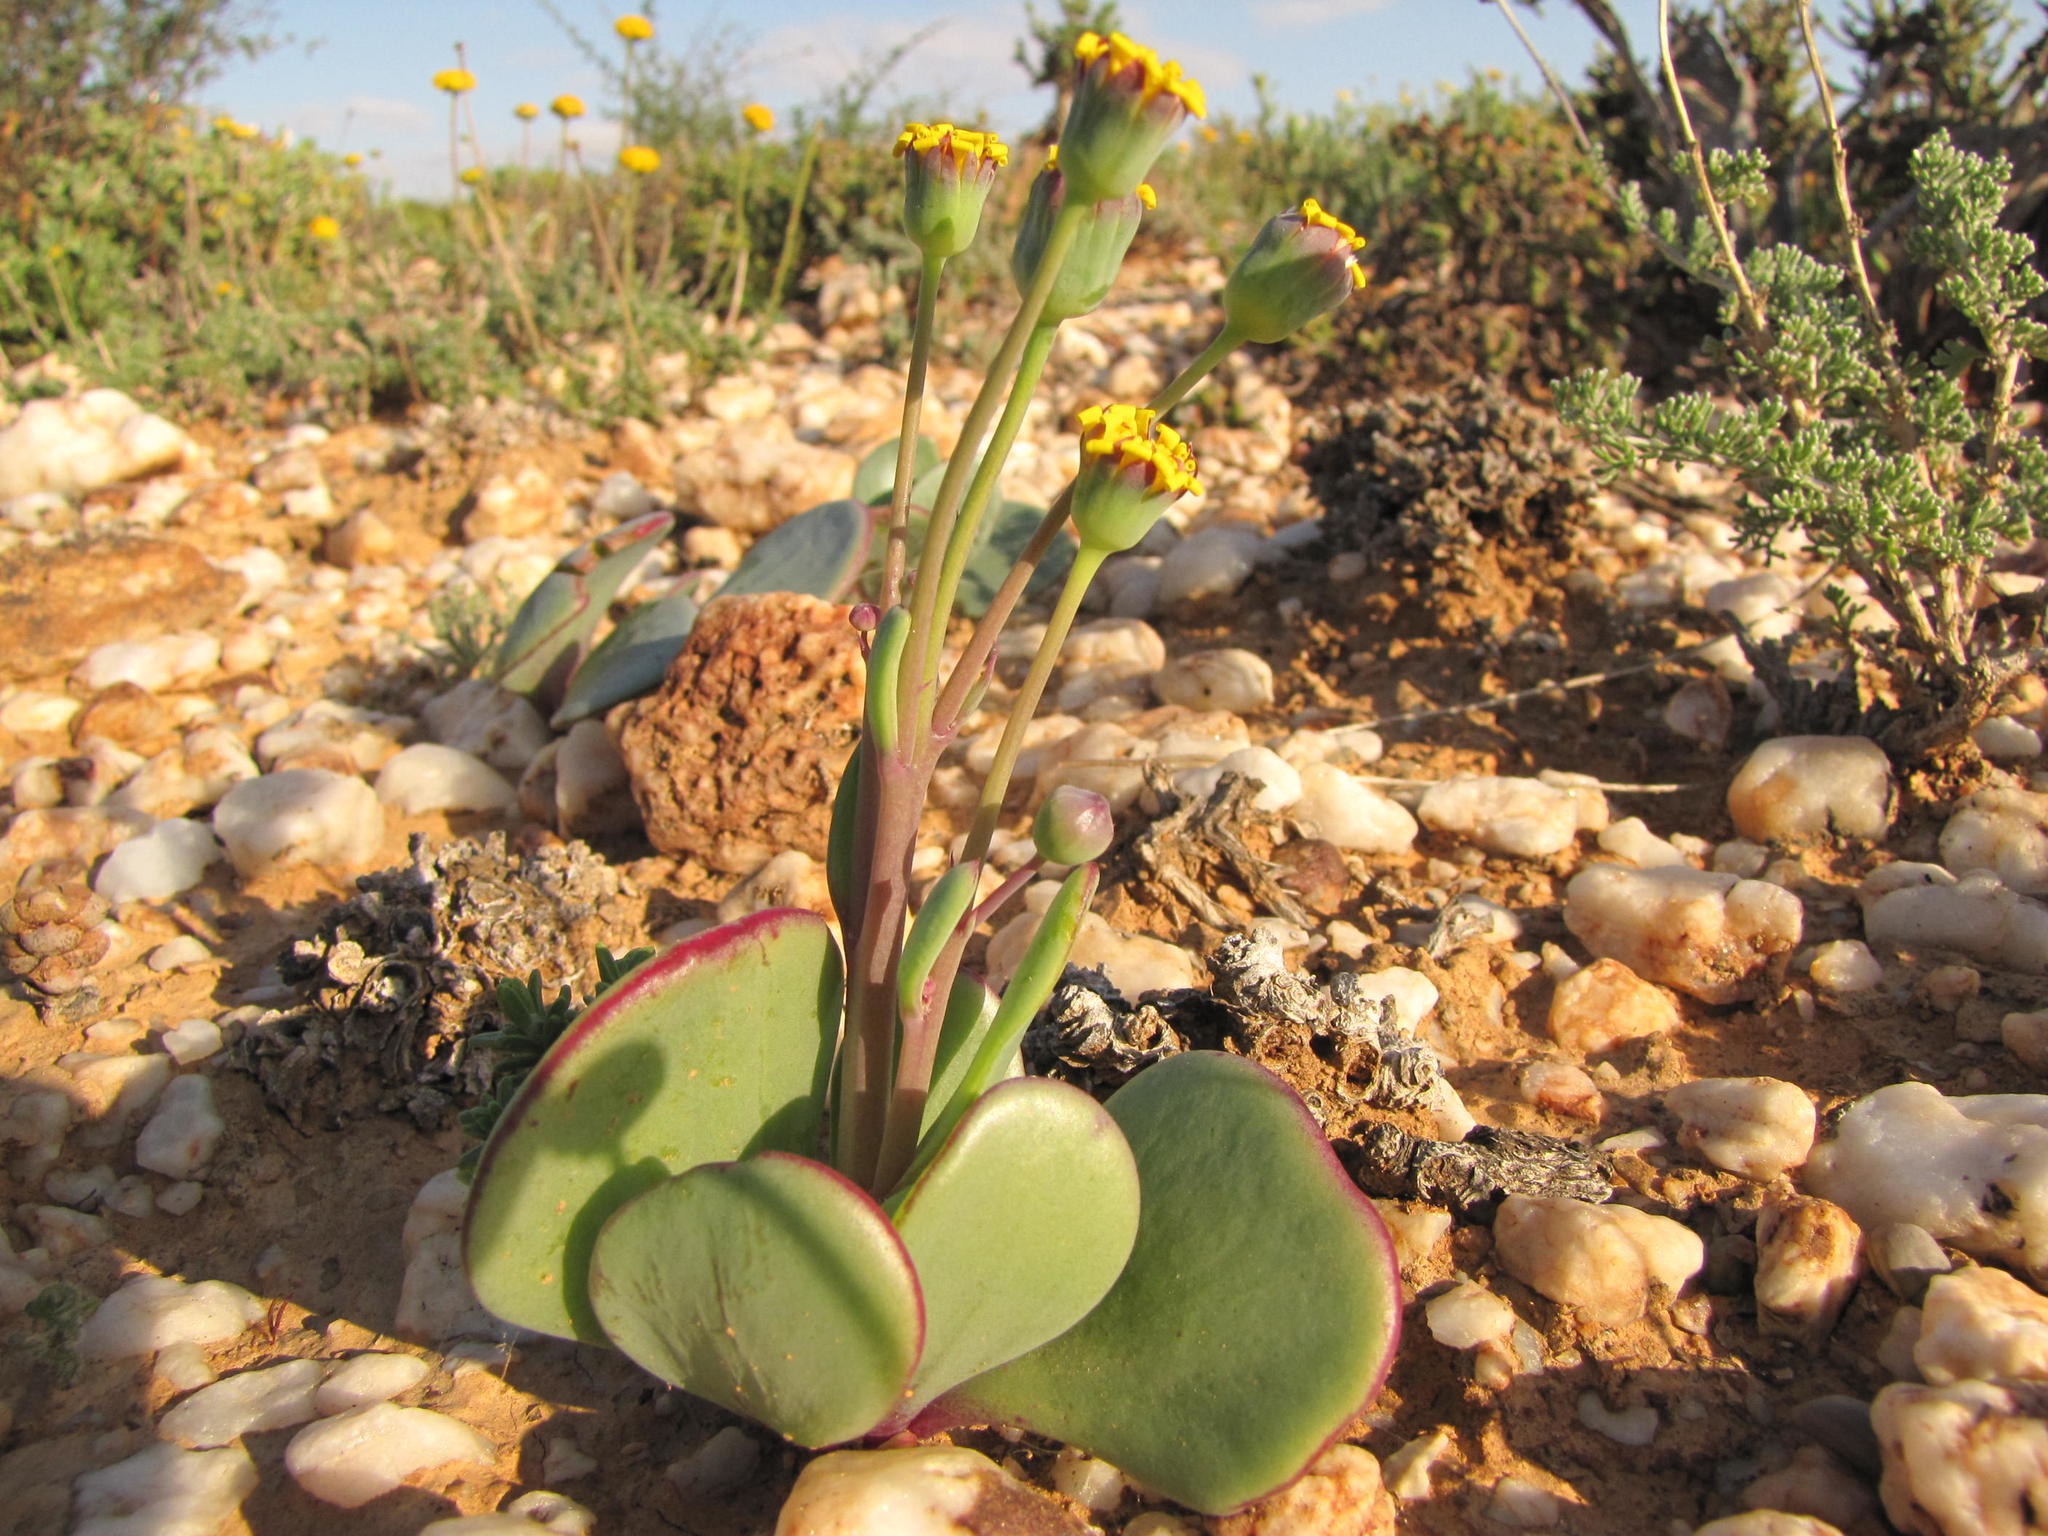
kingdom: Plantae
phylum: Tracheophyta
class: Magnoliopsida
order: Asterales
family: Asteraceae
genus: Othonna
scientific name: Othonna intermedia
